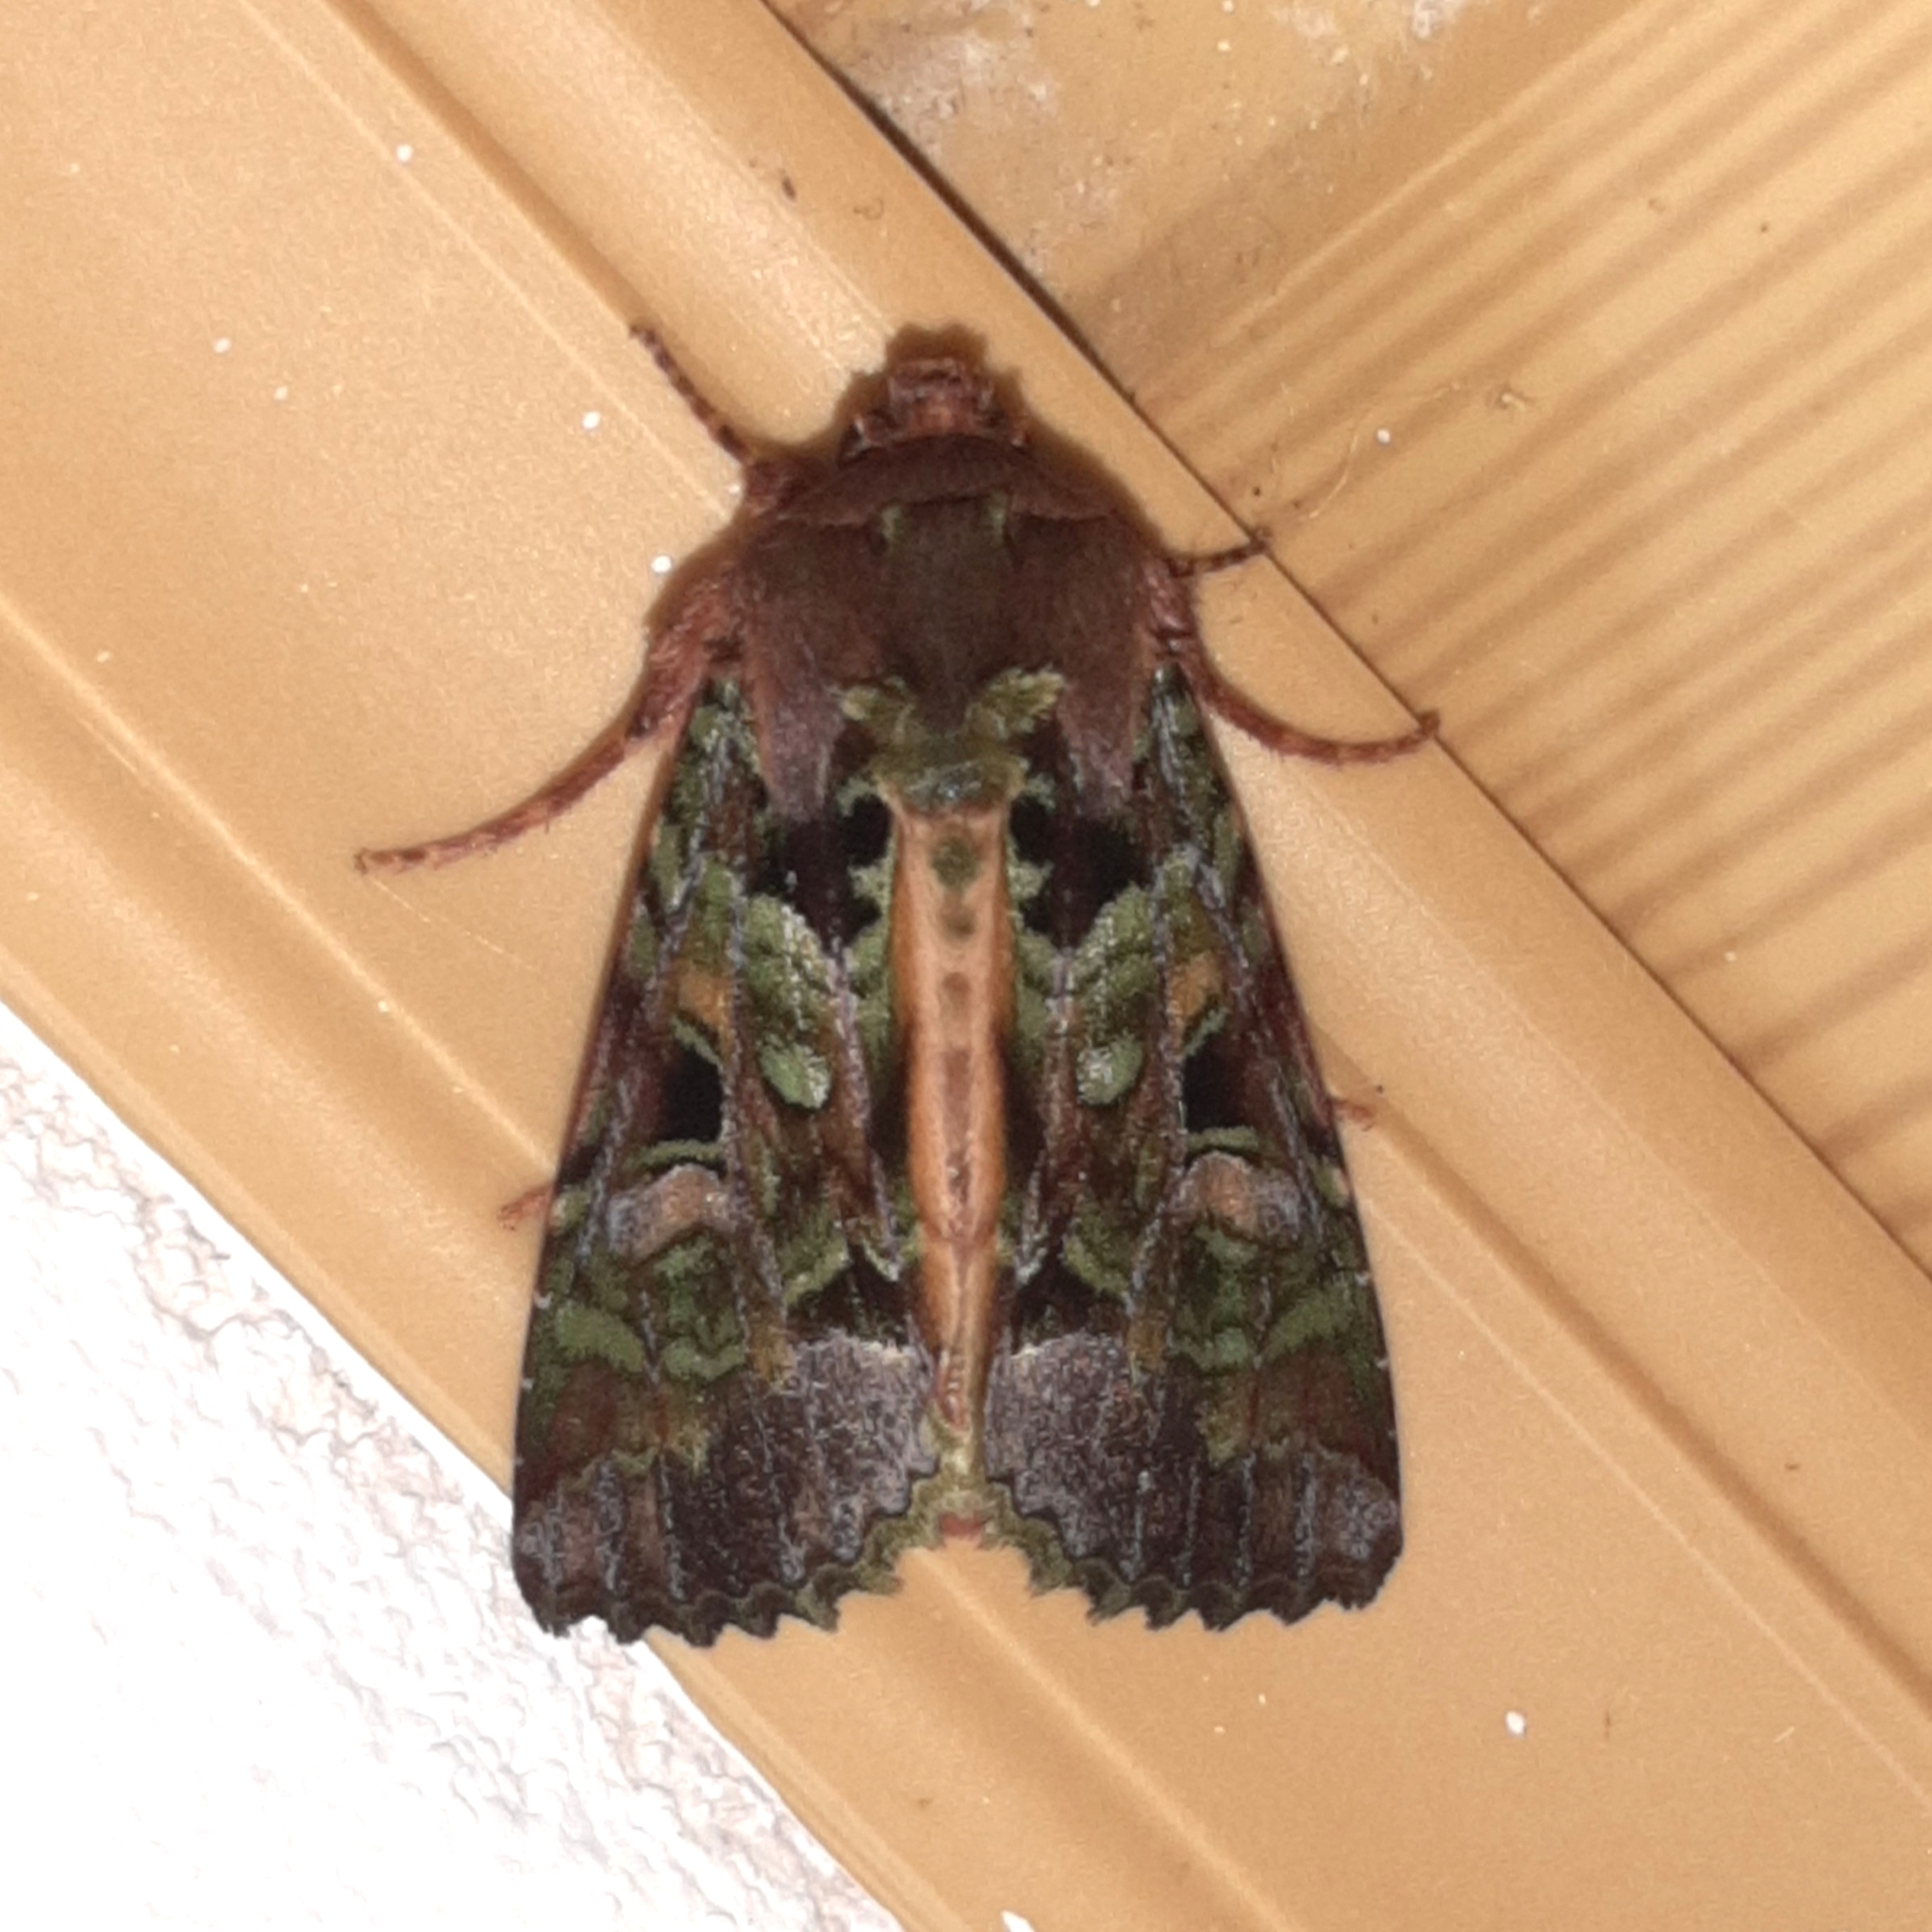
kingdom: Animalia
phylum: Arthropoda
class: Insecta
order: Lepidoptera
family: Noctuidae
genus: Paratrachea
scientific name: Paratrachea laches
